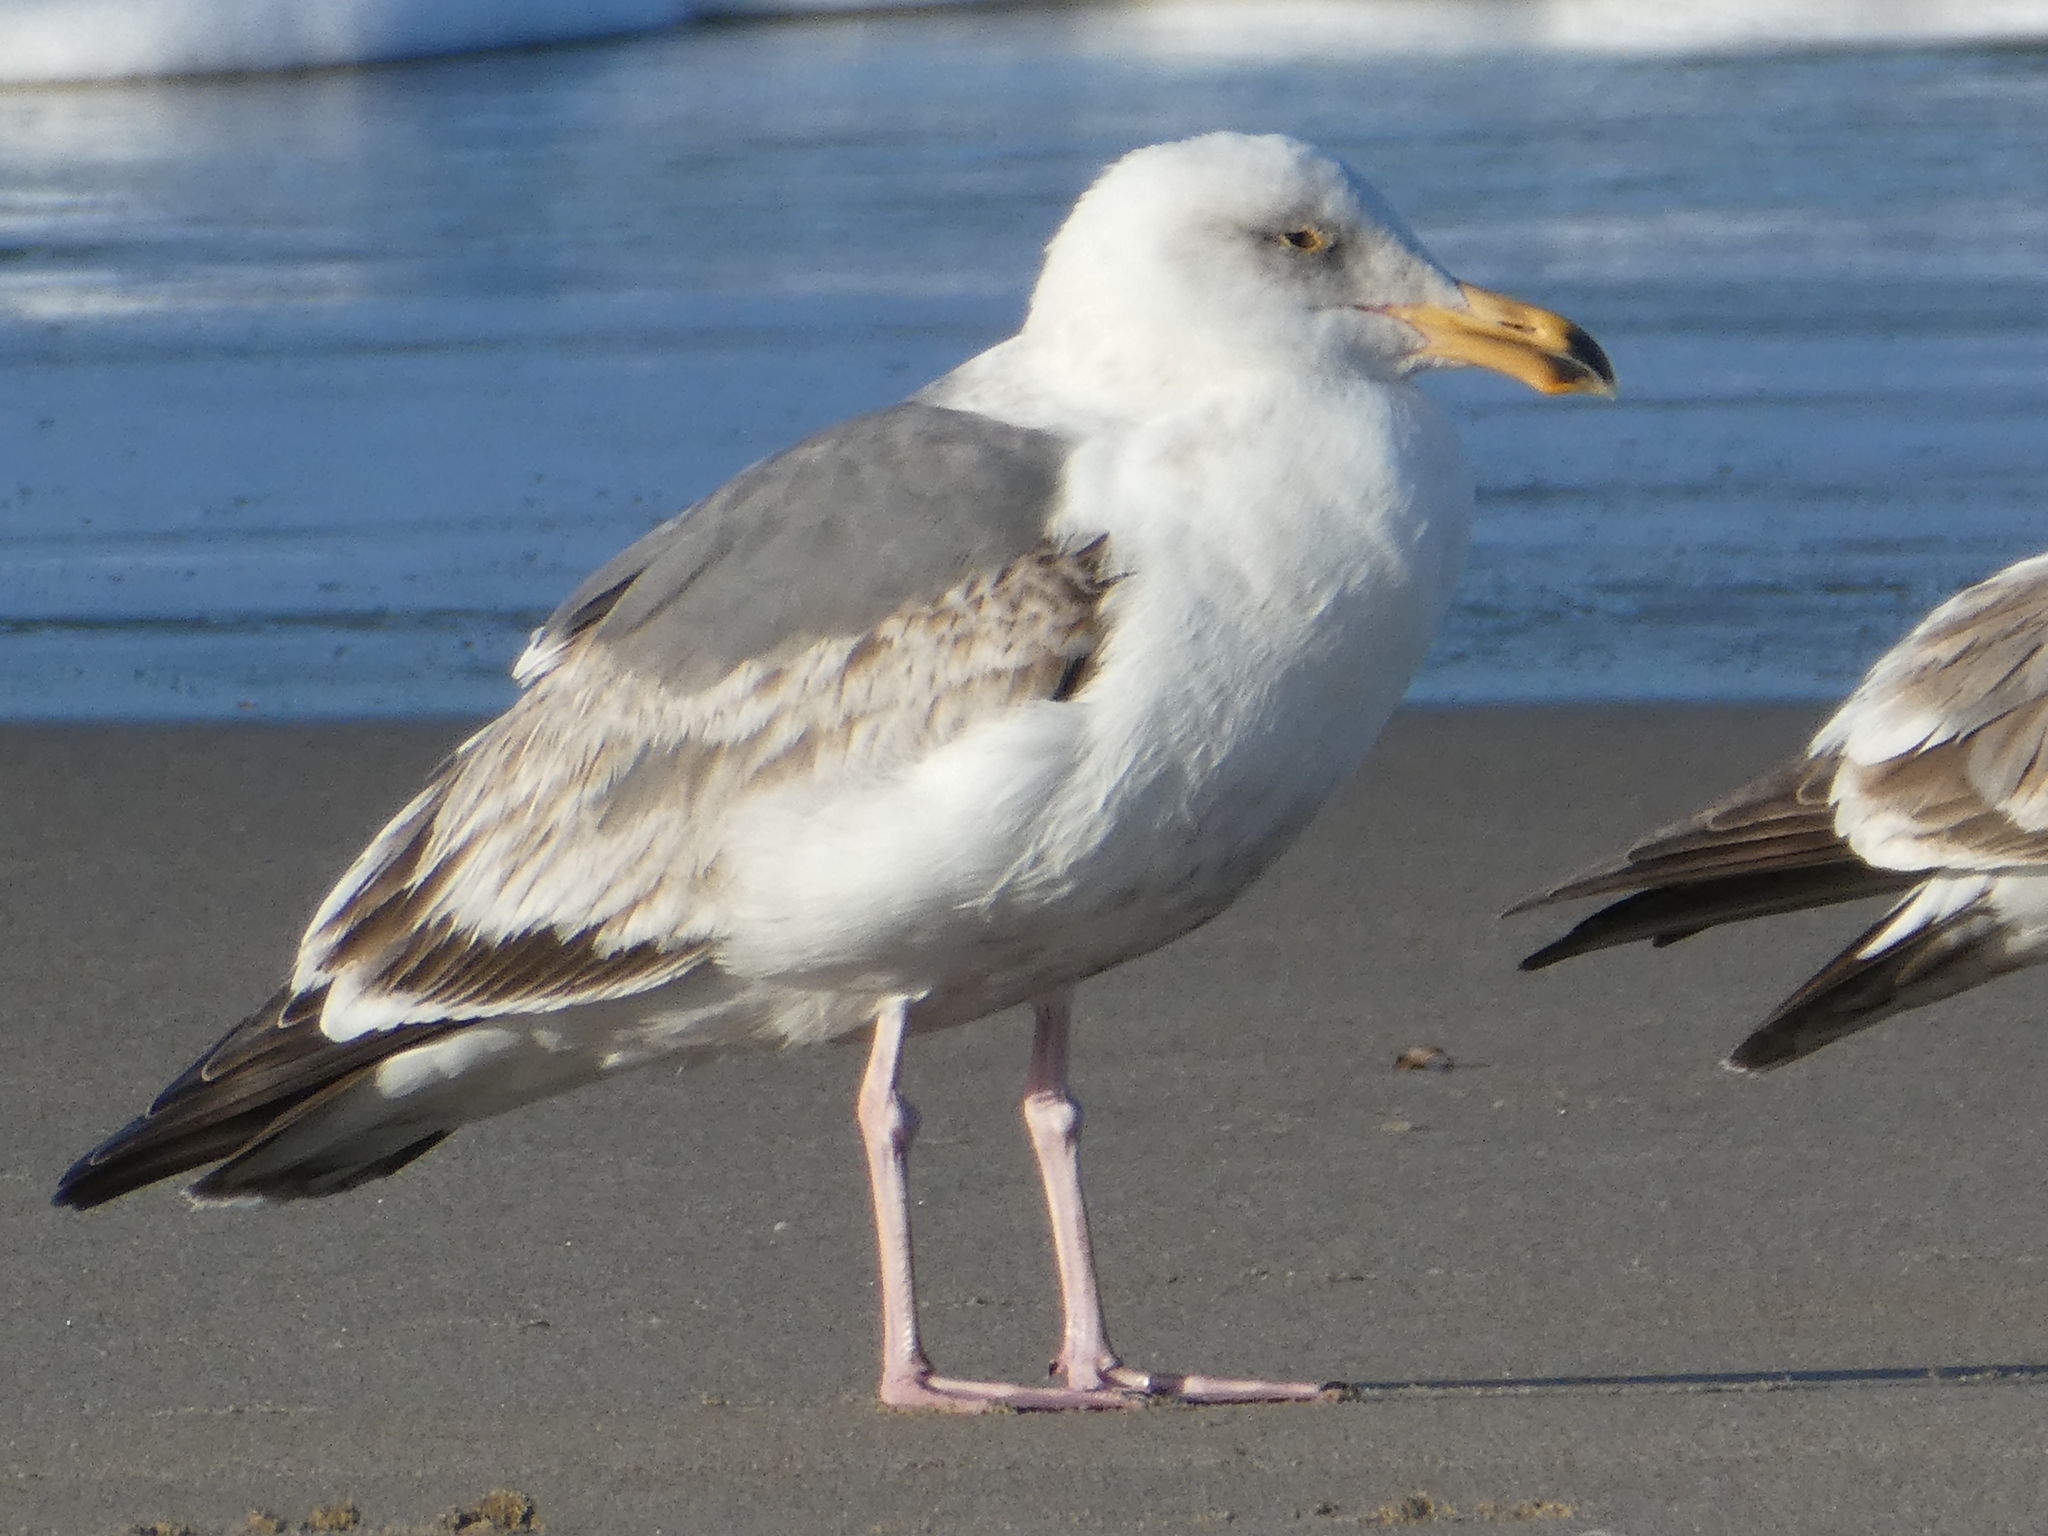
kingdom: Animalia
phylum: Chordata
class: Aves
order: Charadriiformes
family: Laridae
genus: Larus
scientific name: Larus occidentalis
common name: Western gull
